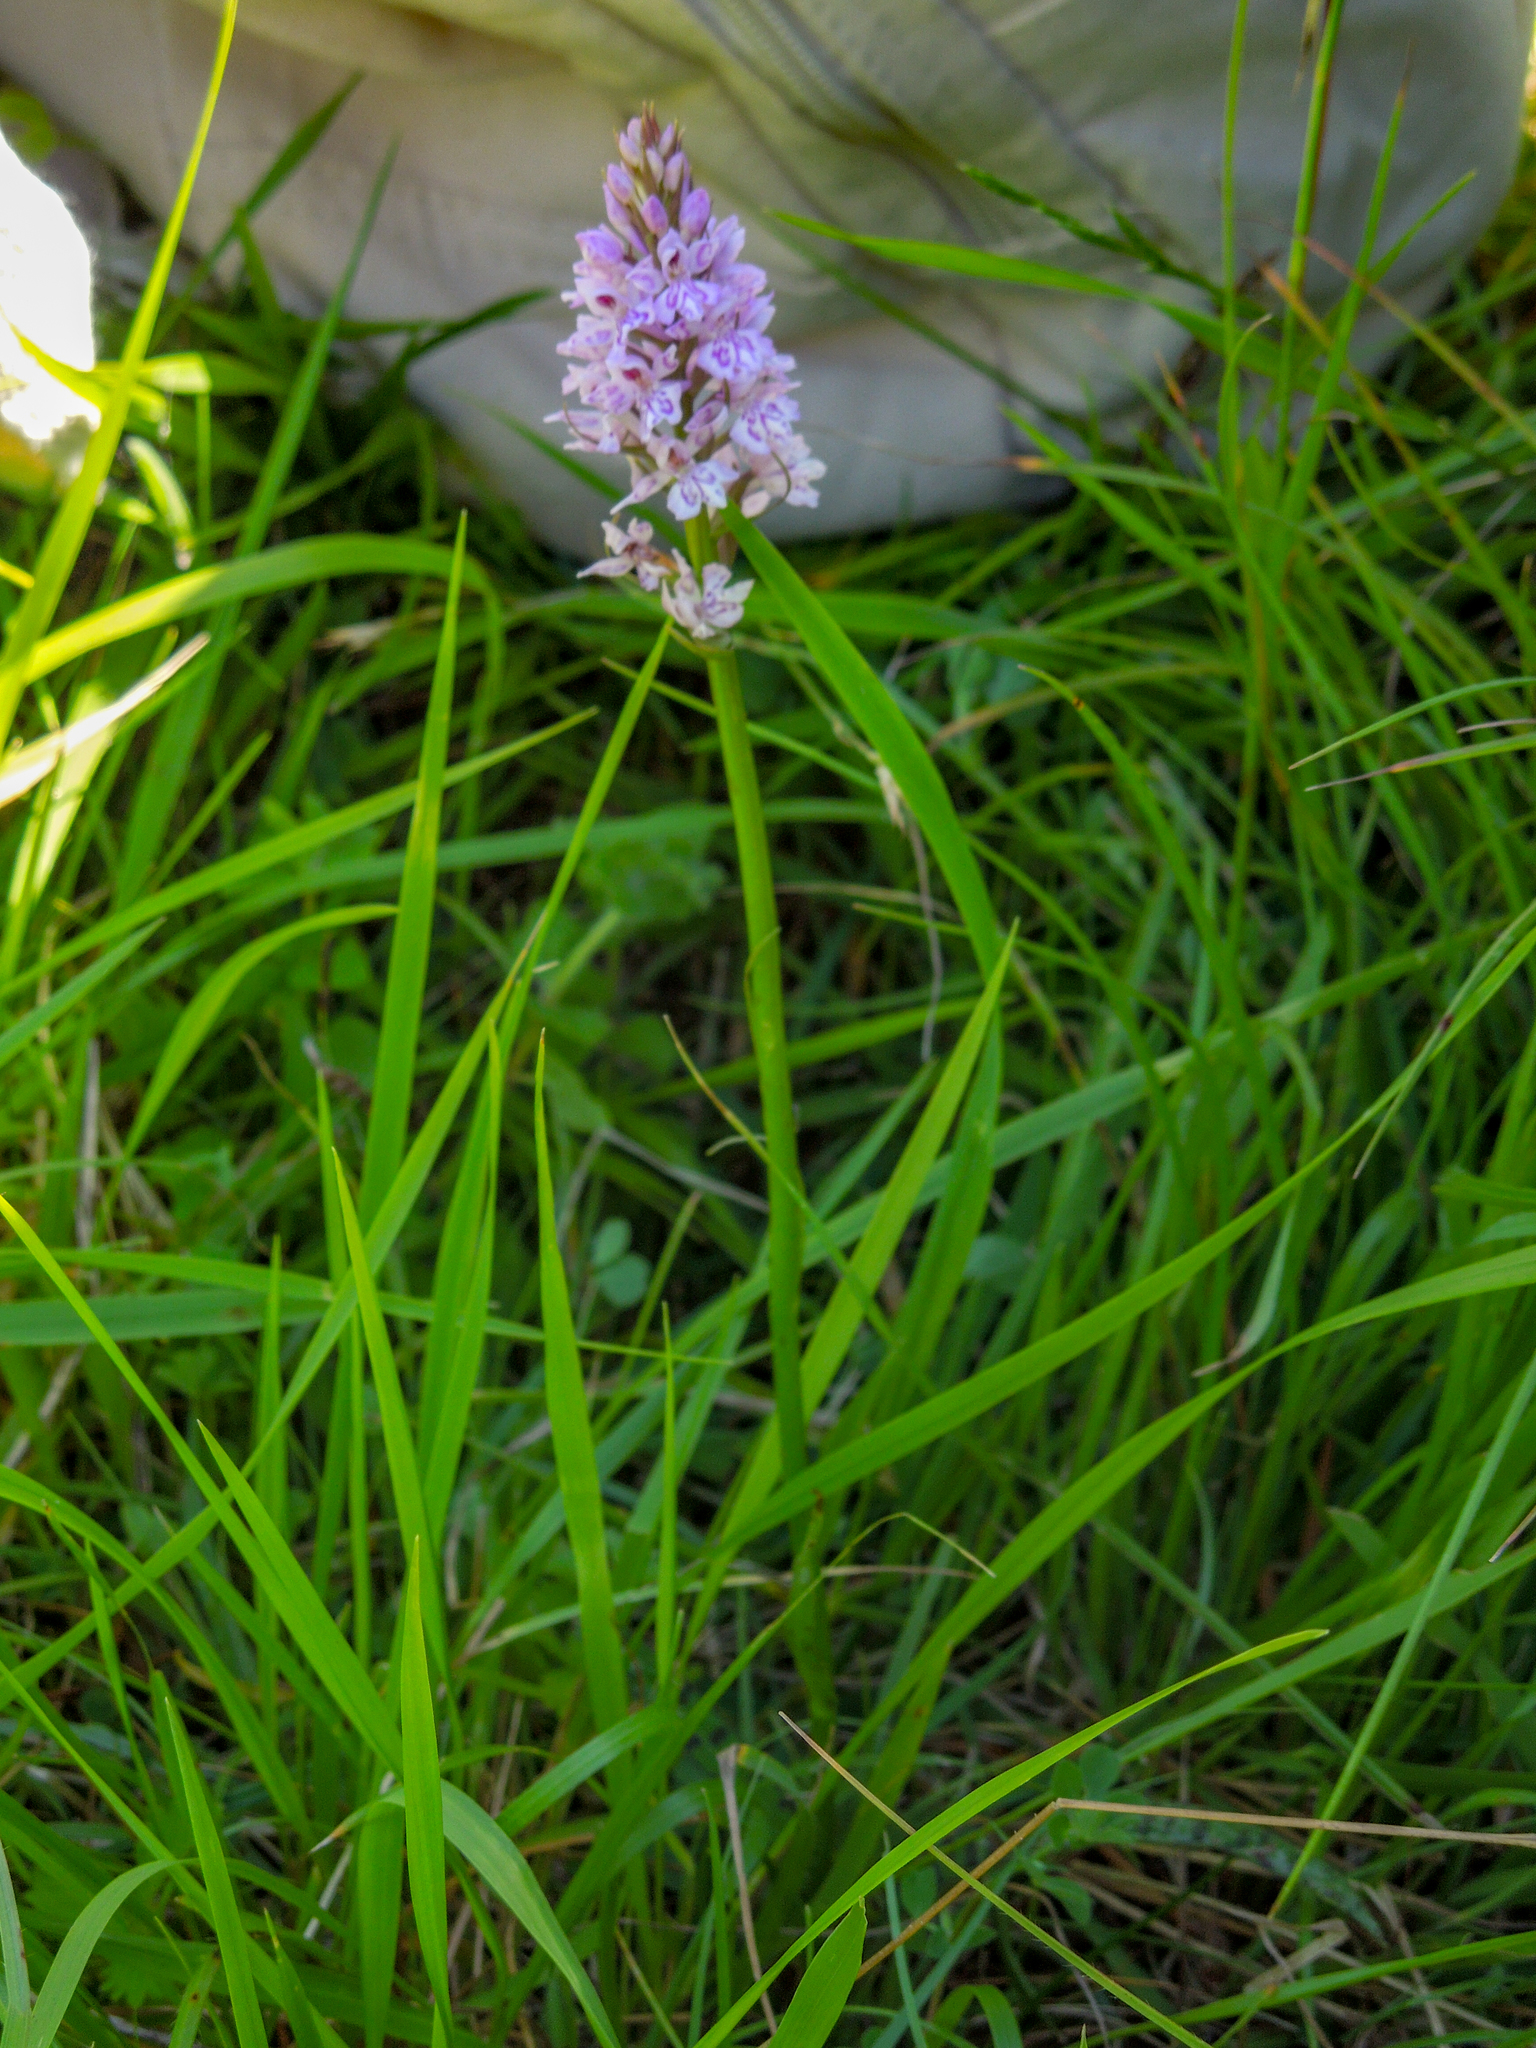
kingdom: Plantae
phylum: Tracheophyta
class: Liliopsida
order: Asparagales
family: Orchidaceae
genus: Dactylorhiza
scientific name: Dactylorhiza maculata
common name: Heath spotted-orchid
